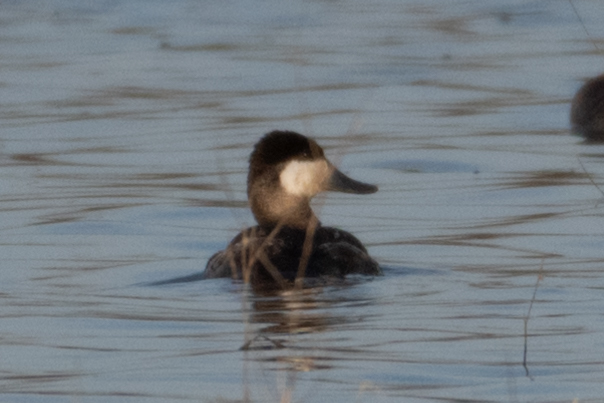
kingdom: Animalia
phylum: Chordata
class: Aves
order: Anseriformes
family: Anatidae
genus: Oxyura
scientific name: Oxyura jamaicensis
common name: Ruddy duck
